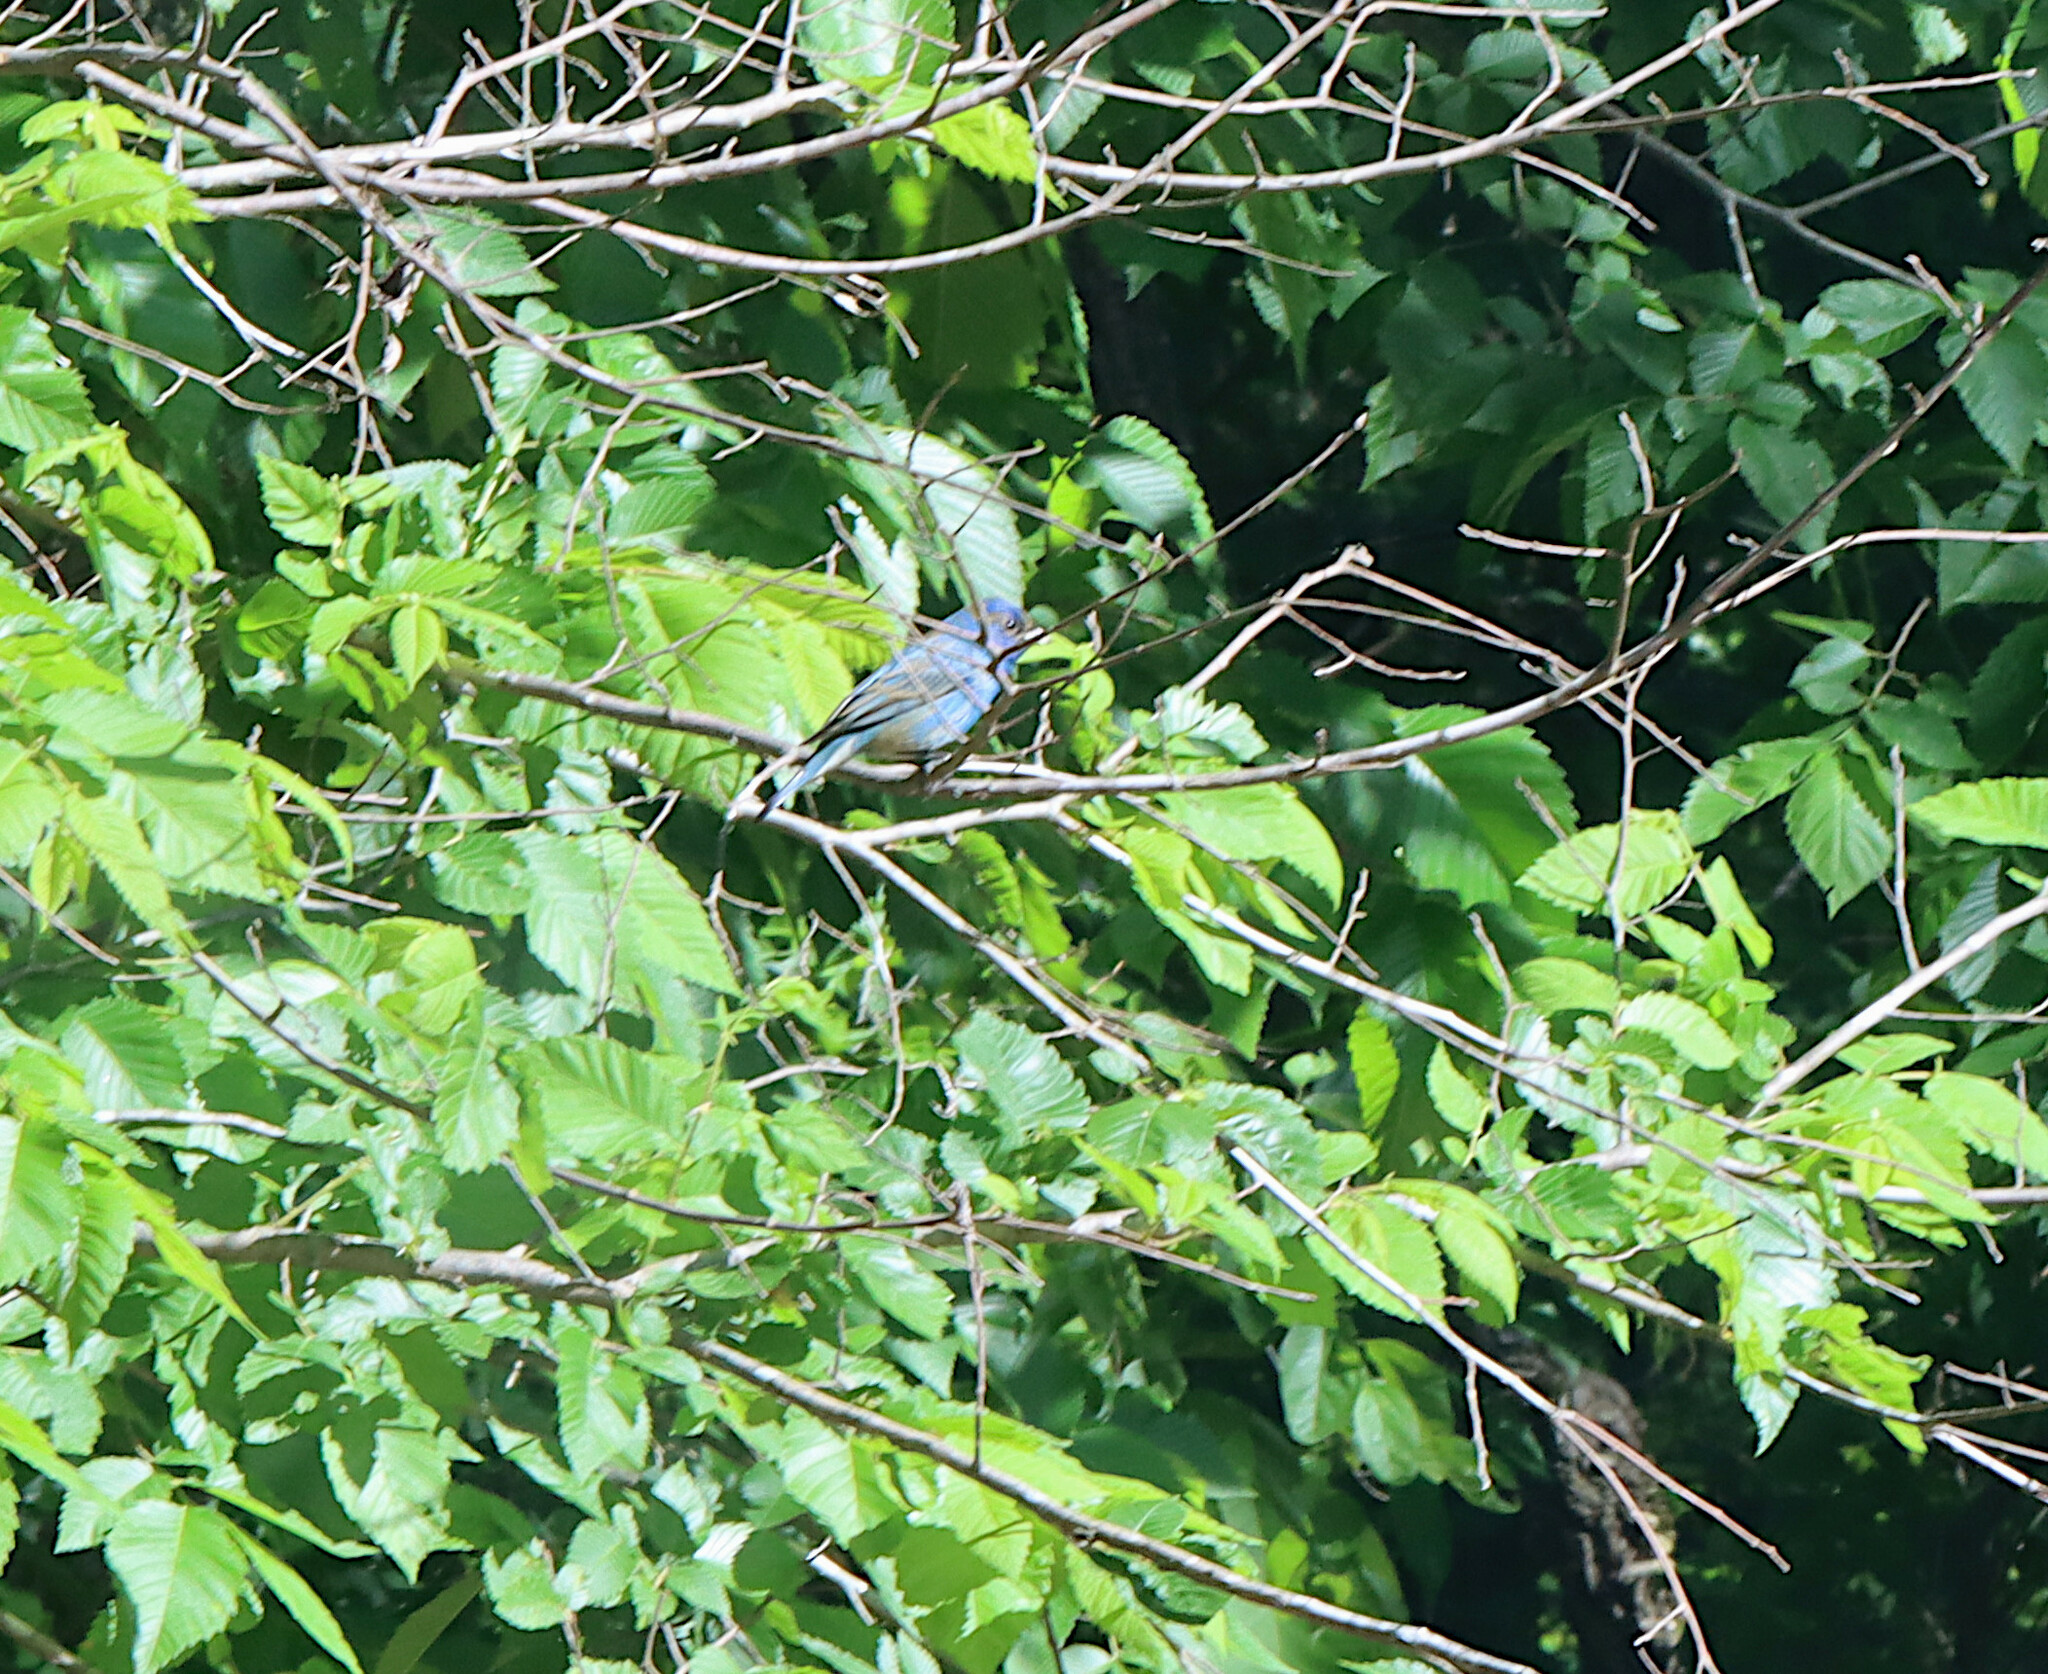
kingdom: Animalia
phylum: Chordata
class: Aves
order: Passeriformes
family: Cardinalidae
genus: Passerina
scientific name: Passerina cyanea
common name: Indigo bunting
